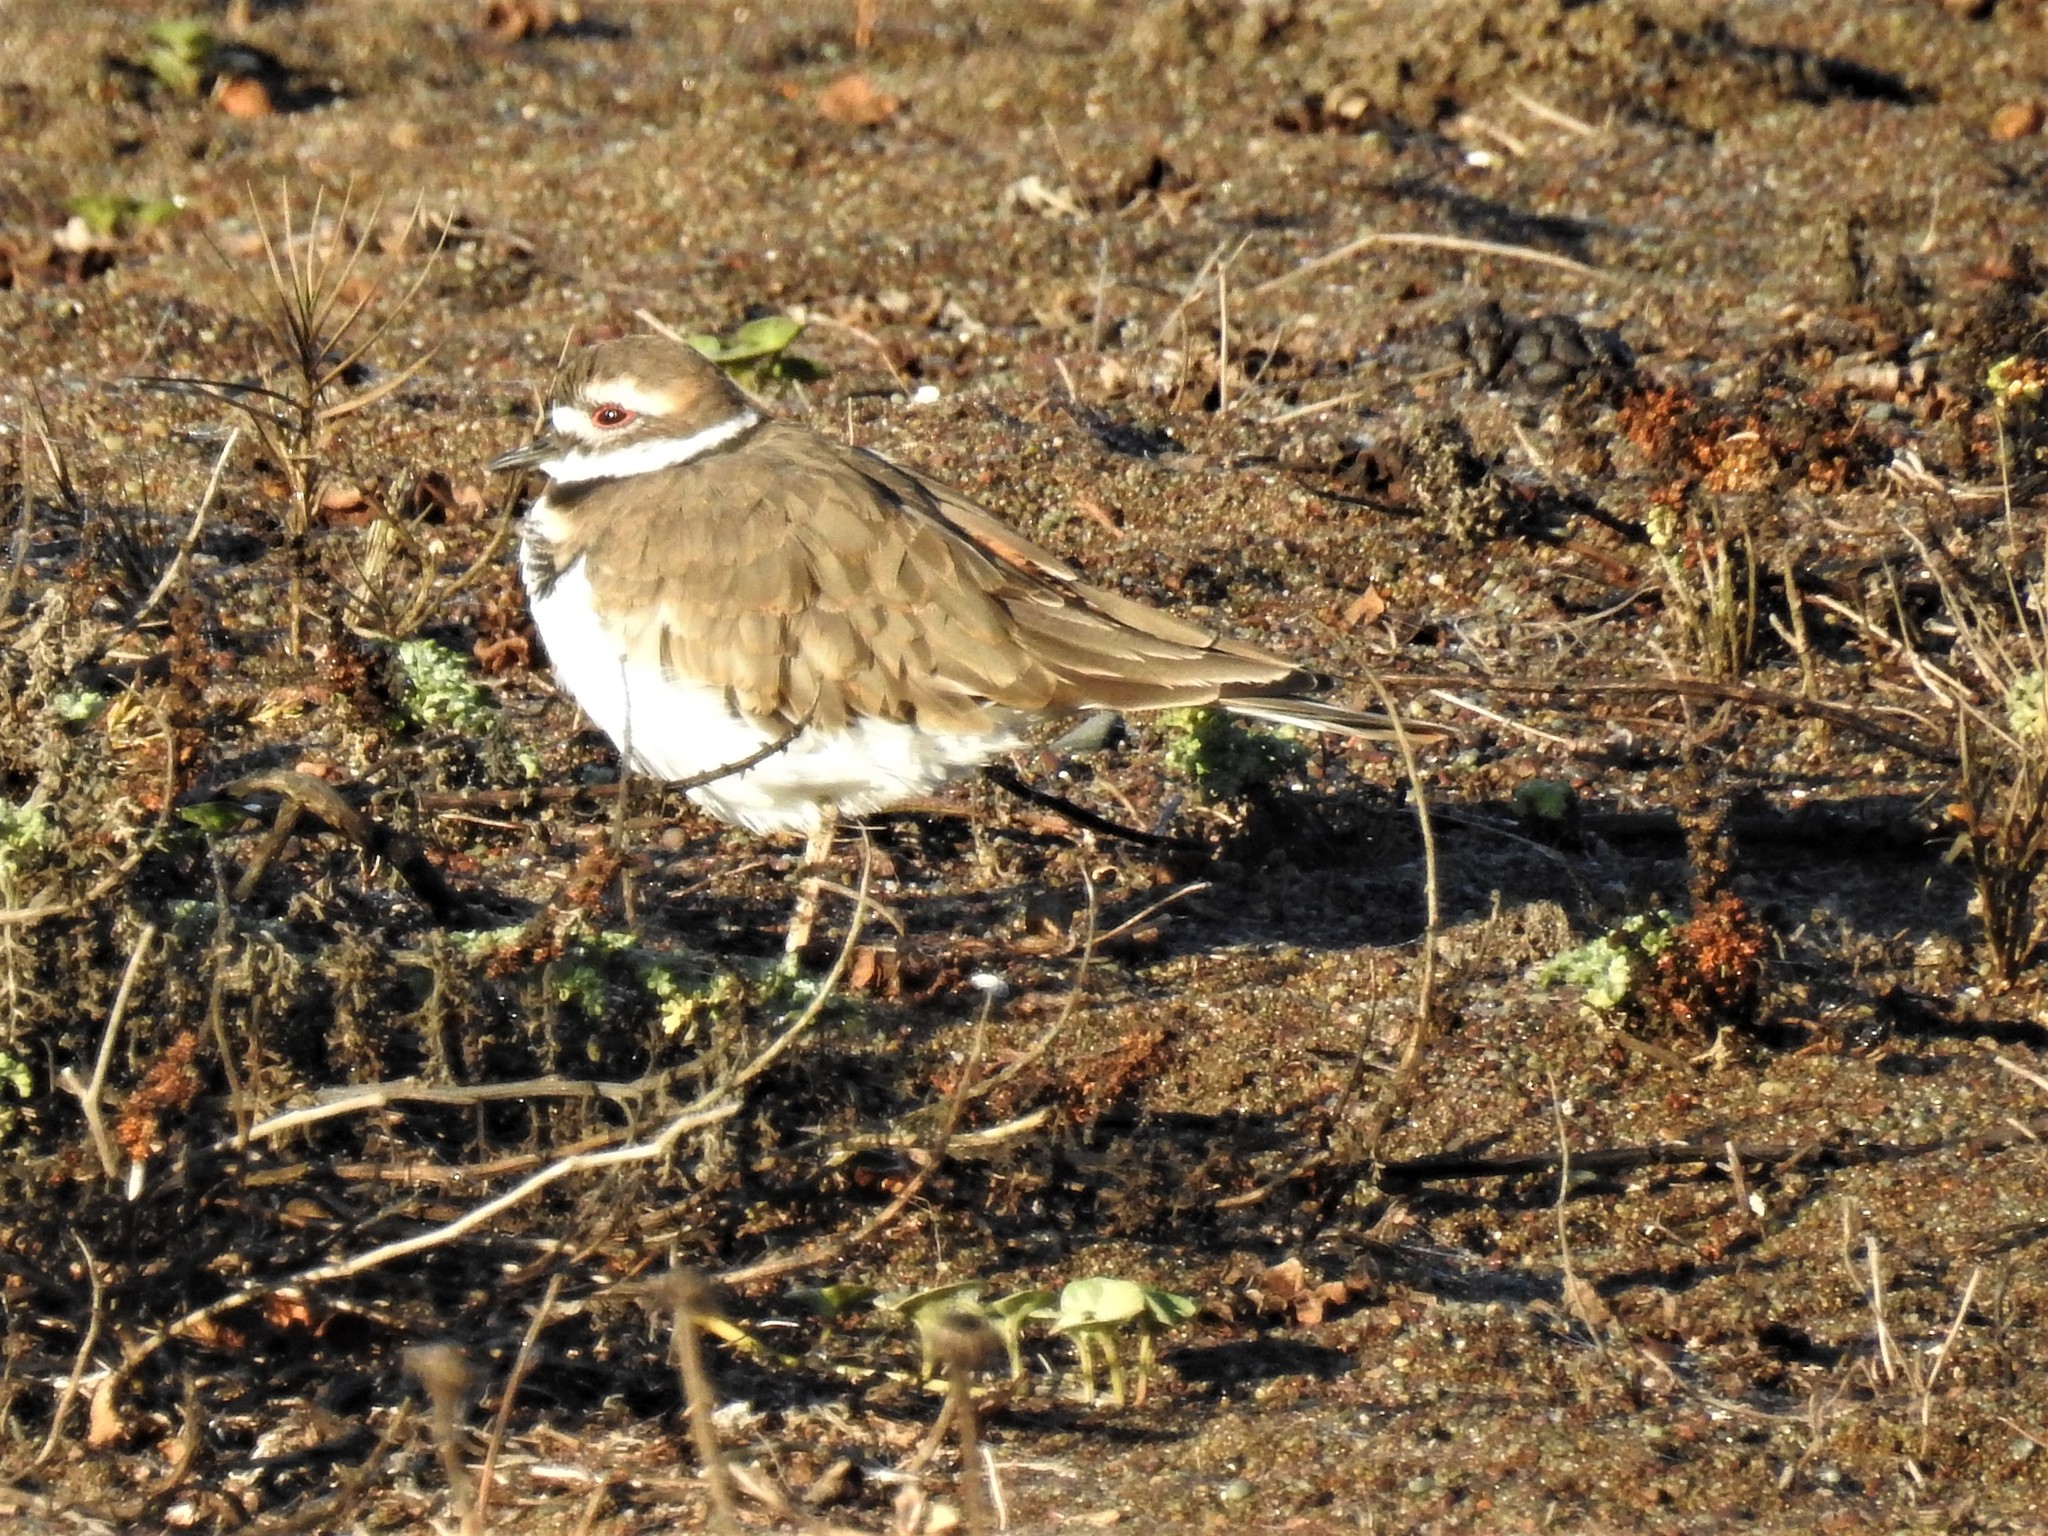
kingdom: Animalia
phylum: Chordata
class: Aves
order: Charadriiformes
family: Charadriidae
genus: Charadrius
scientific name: Charadrius vociferus
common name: Killdeer
